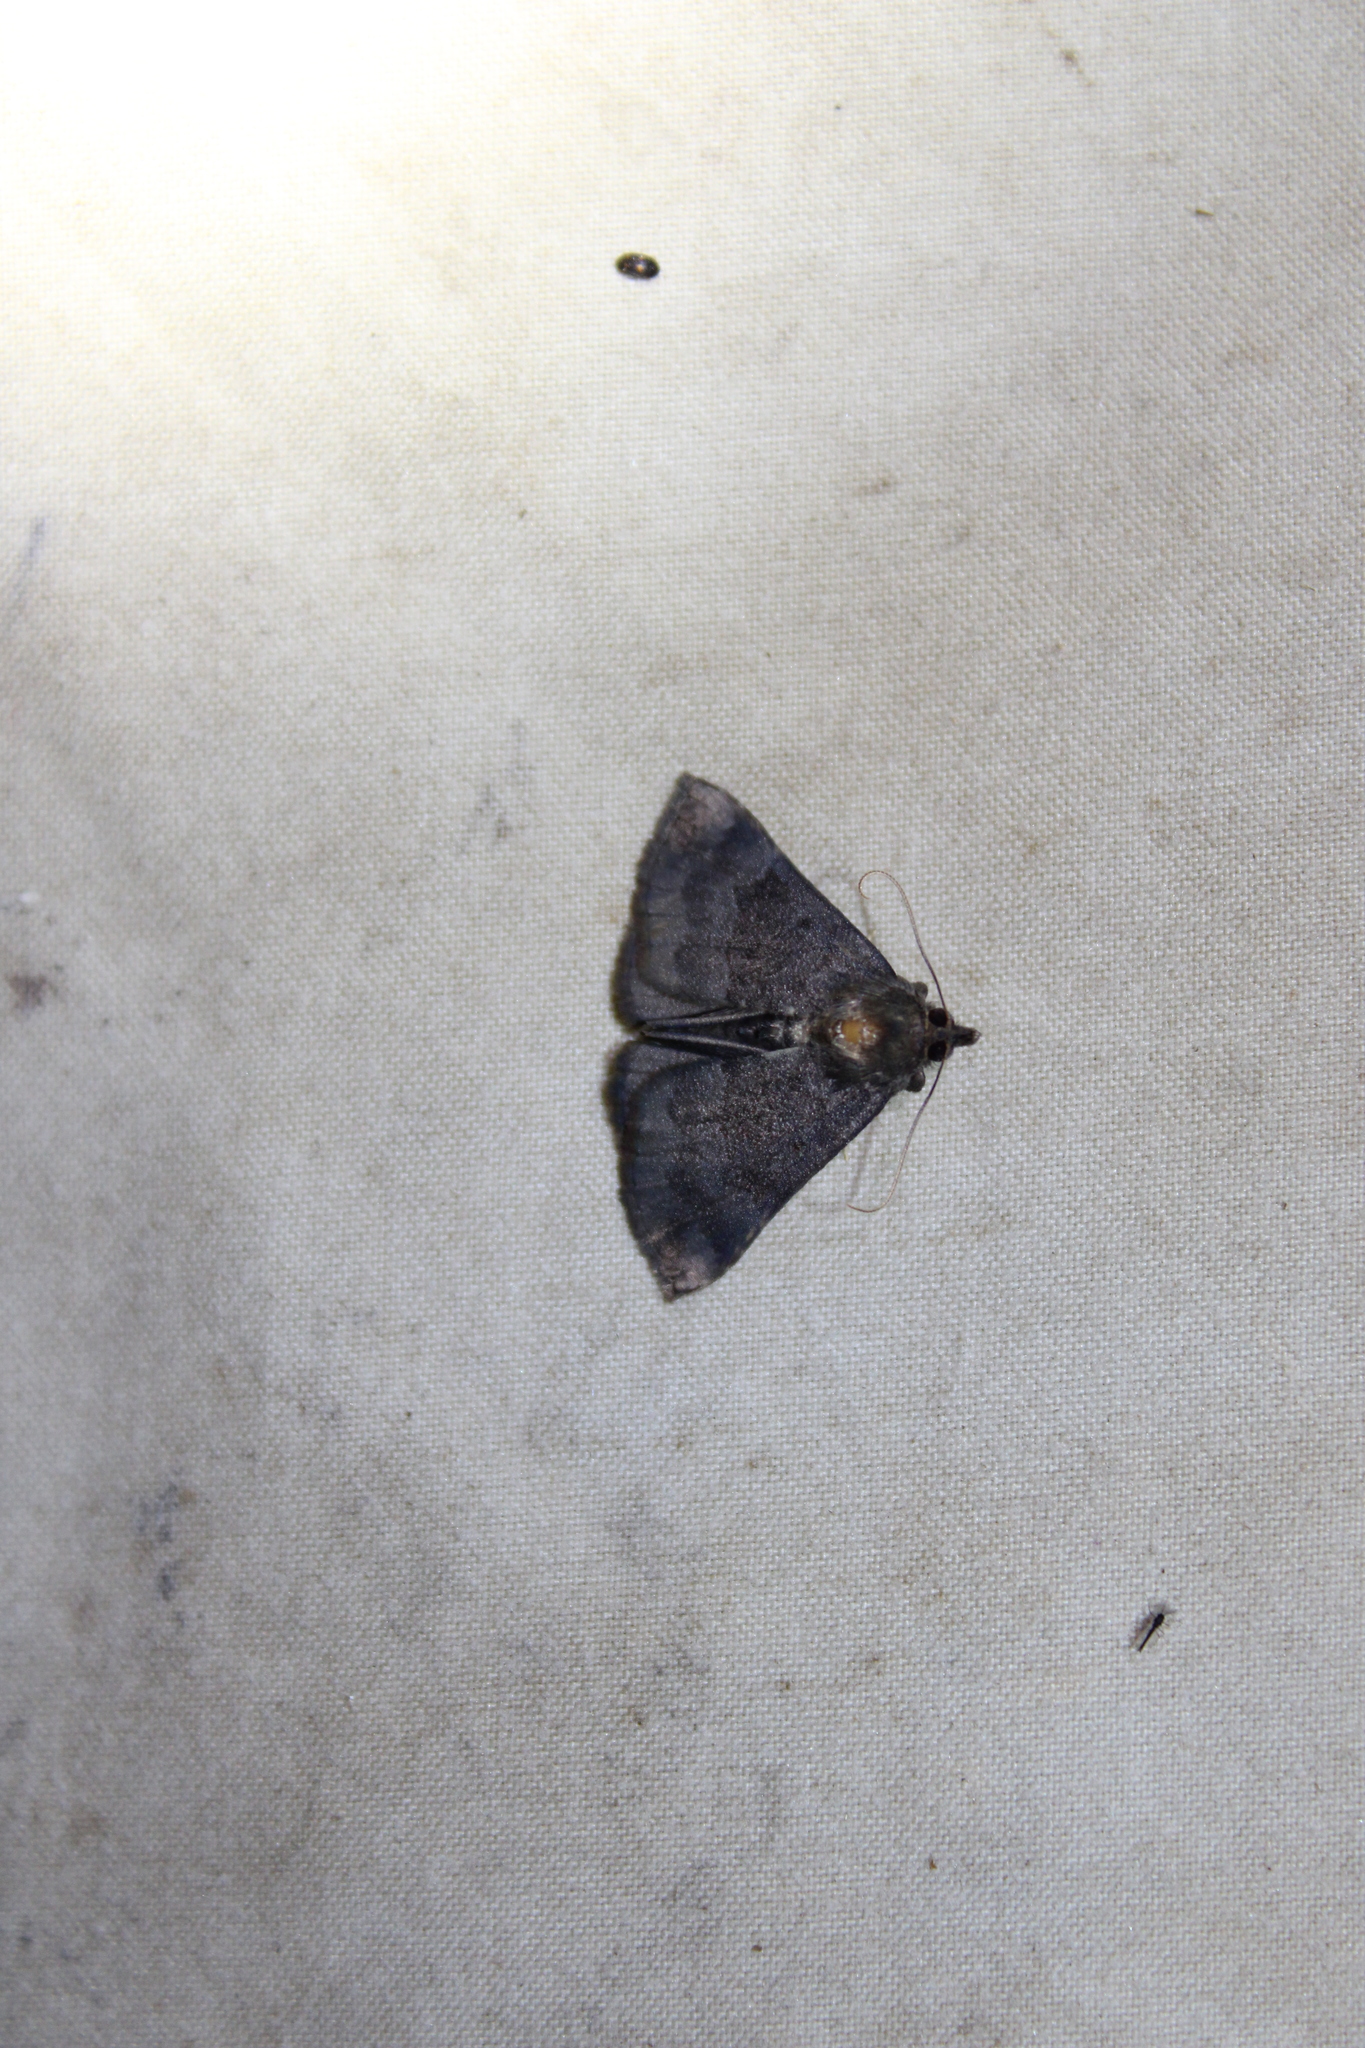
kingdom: Animalia
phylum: Arthropoda
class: Insecta
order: Lepidoptera
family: Erebidae
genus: Hypena
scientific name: Hypena madefactalis
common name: Gray-edged snout
